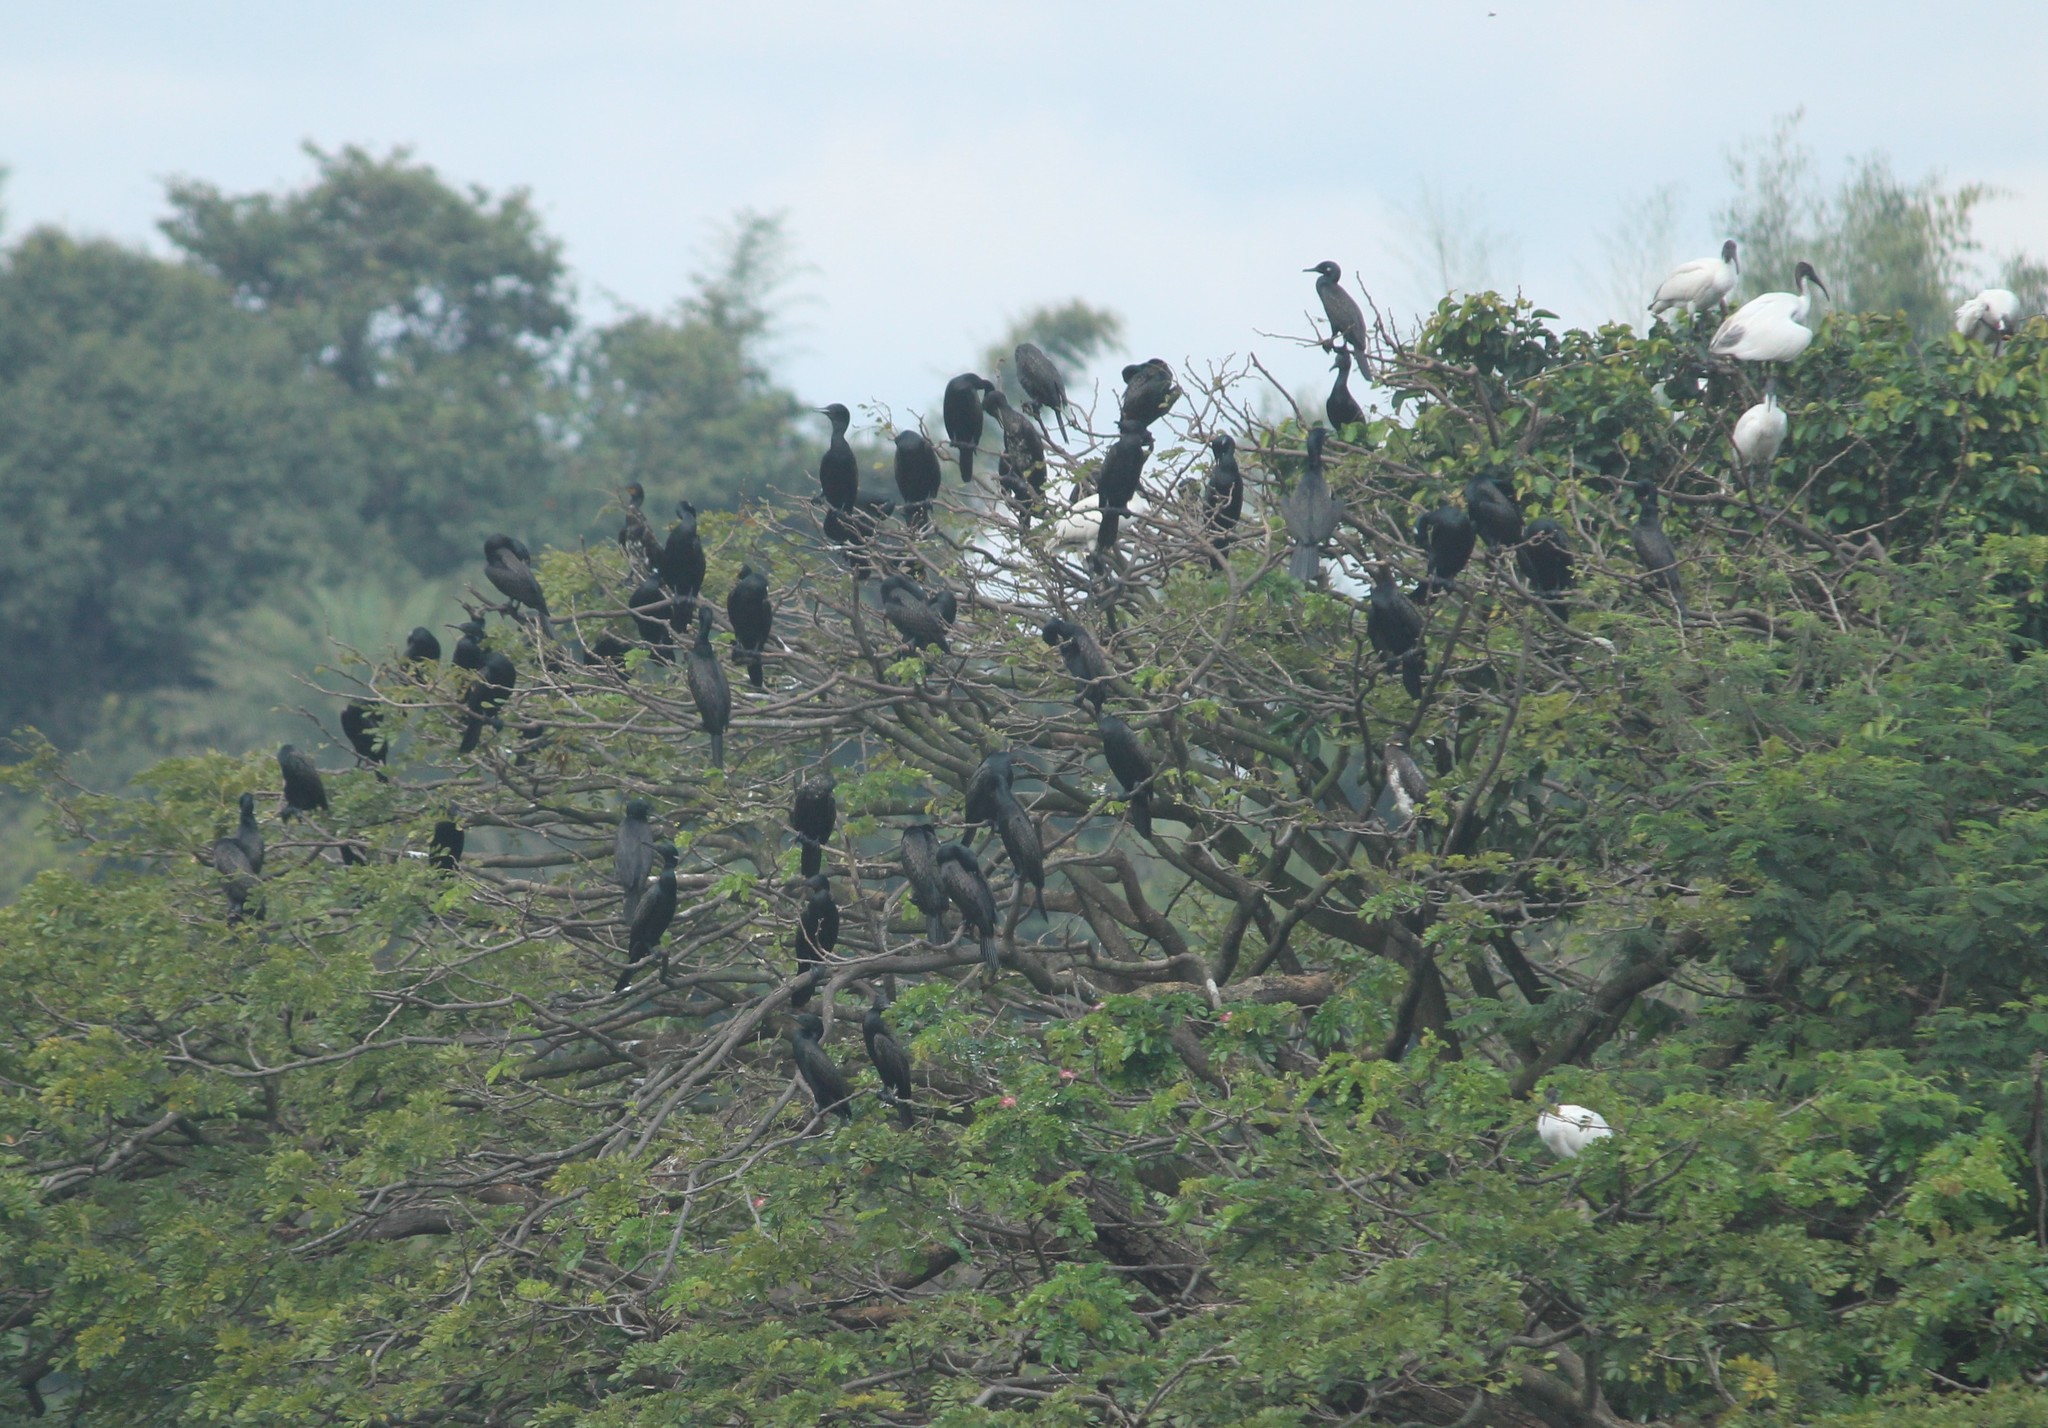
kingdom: Animalia
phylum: Chordata
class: Aves
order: Suliformes
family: Phalacrocoracidae
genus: Phalacrocorax
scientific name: Phalacrocorax fuscicollis
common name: Indian cormorant
